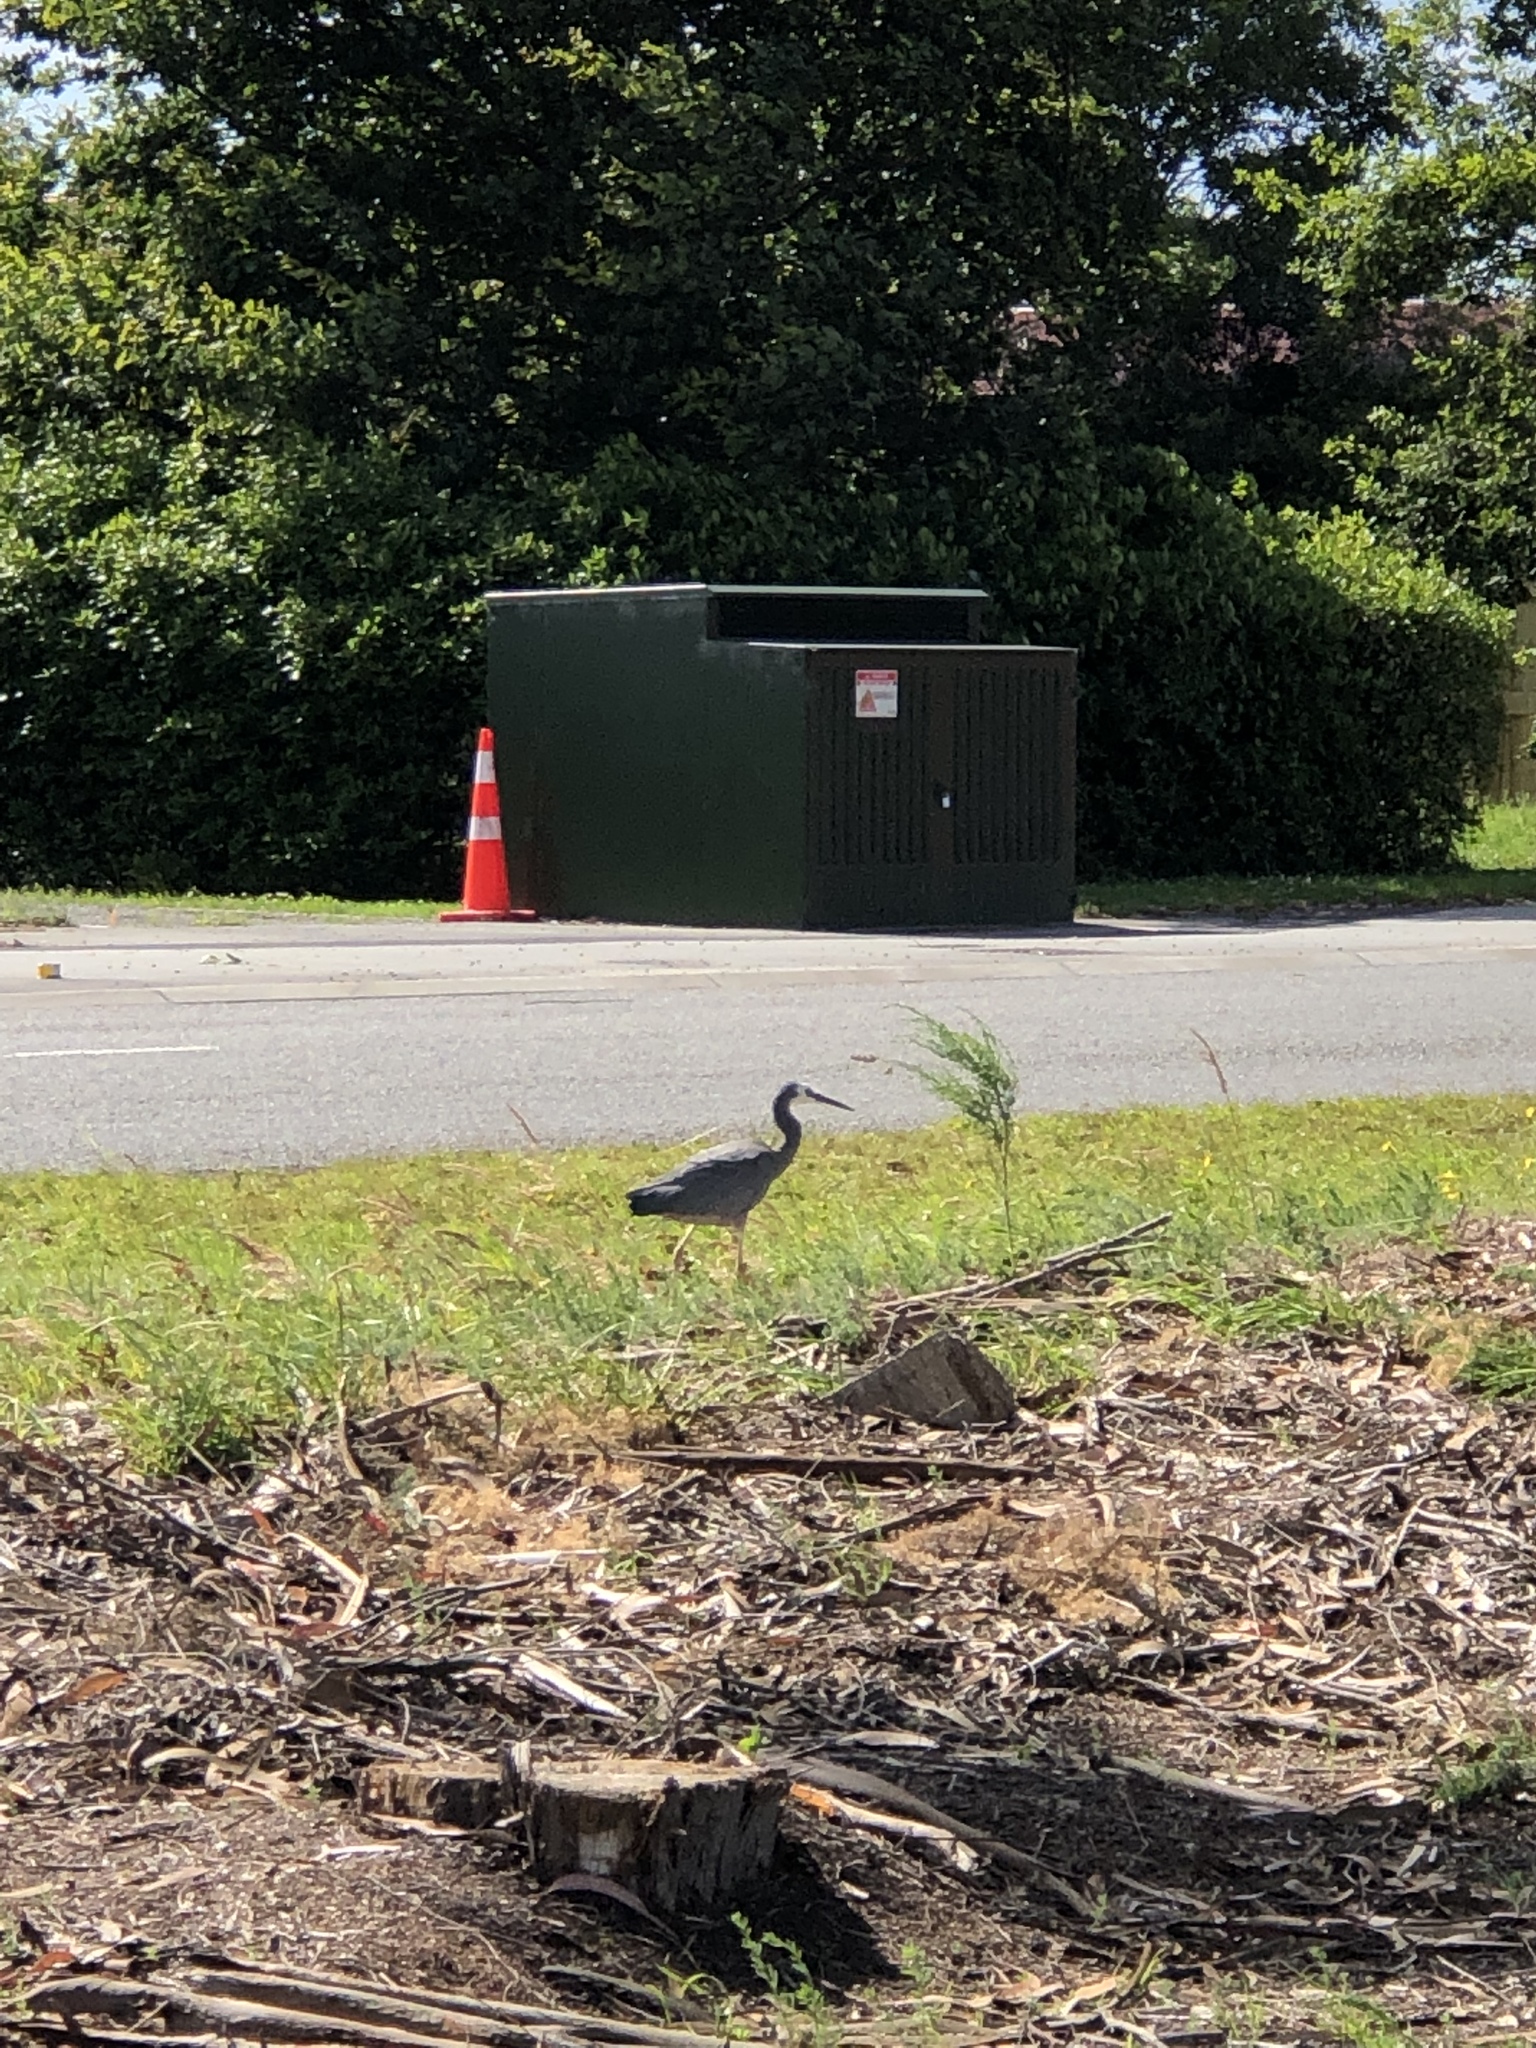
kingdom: Animalia
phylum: Chordata
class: Aves
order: Pelecaniformes
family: Ardeidae
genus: Egretta
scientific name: Egretta novaehollandiae
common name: White-faced heron
